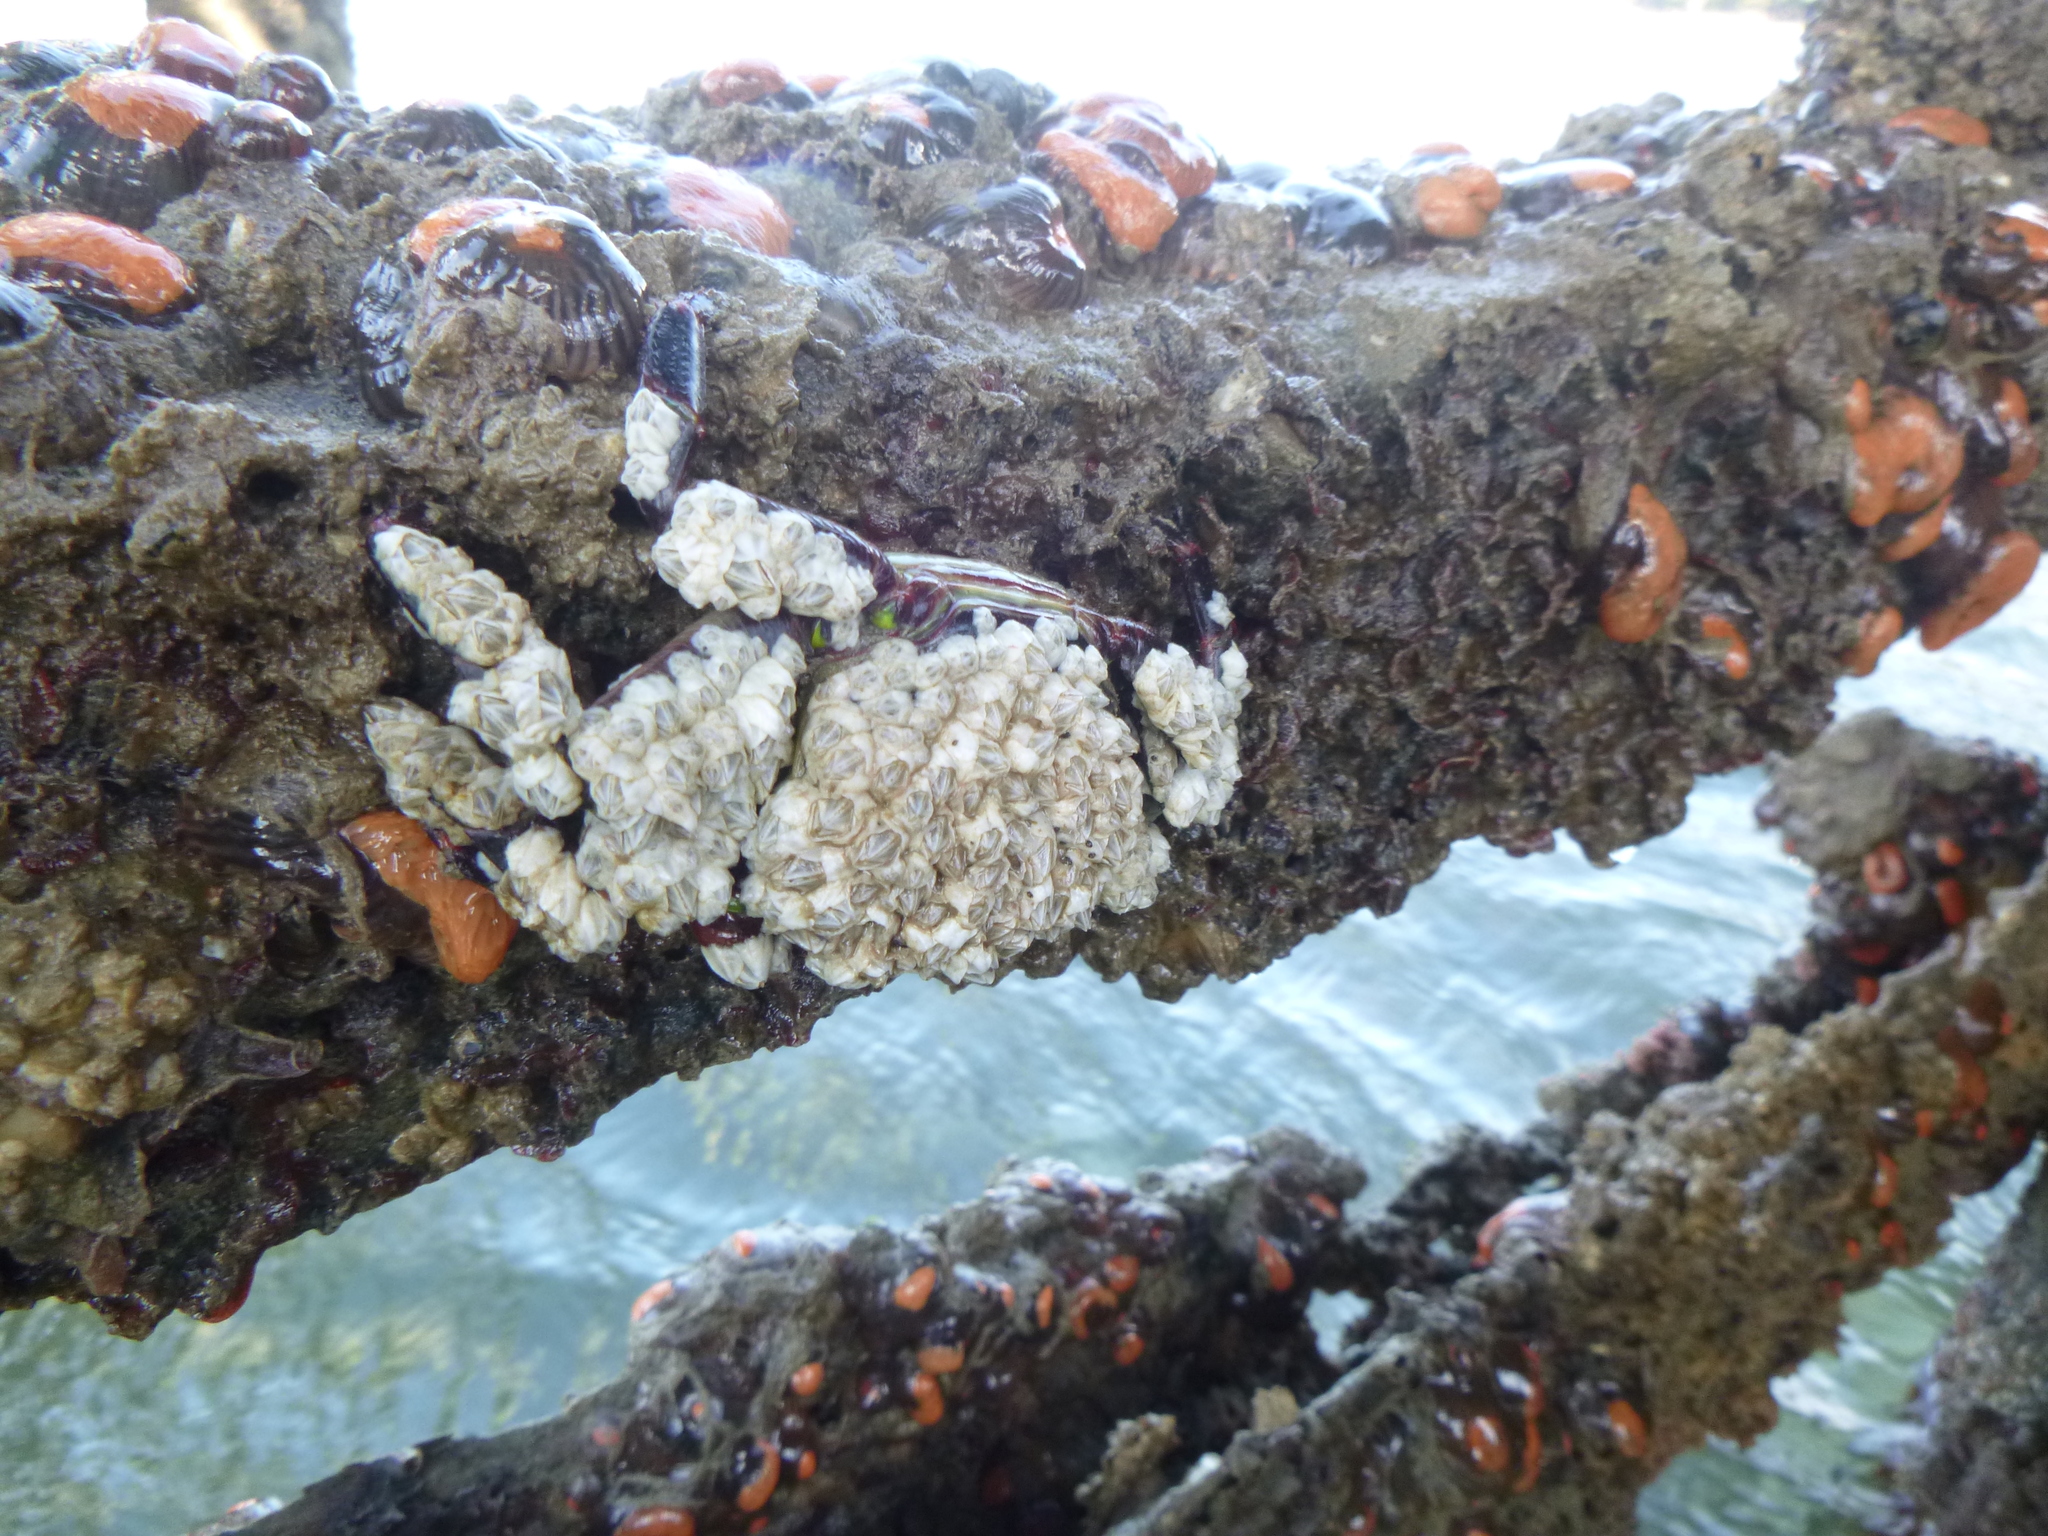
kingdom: Animalia
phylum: Arthropoda
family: Elminiidae
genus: Austrominius
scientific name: Austrominius modestus
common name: Australasian barnacle
